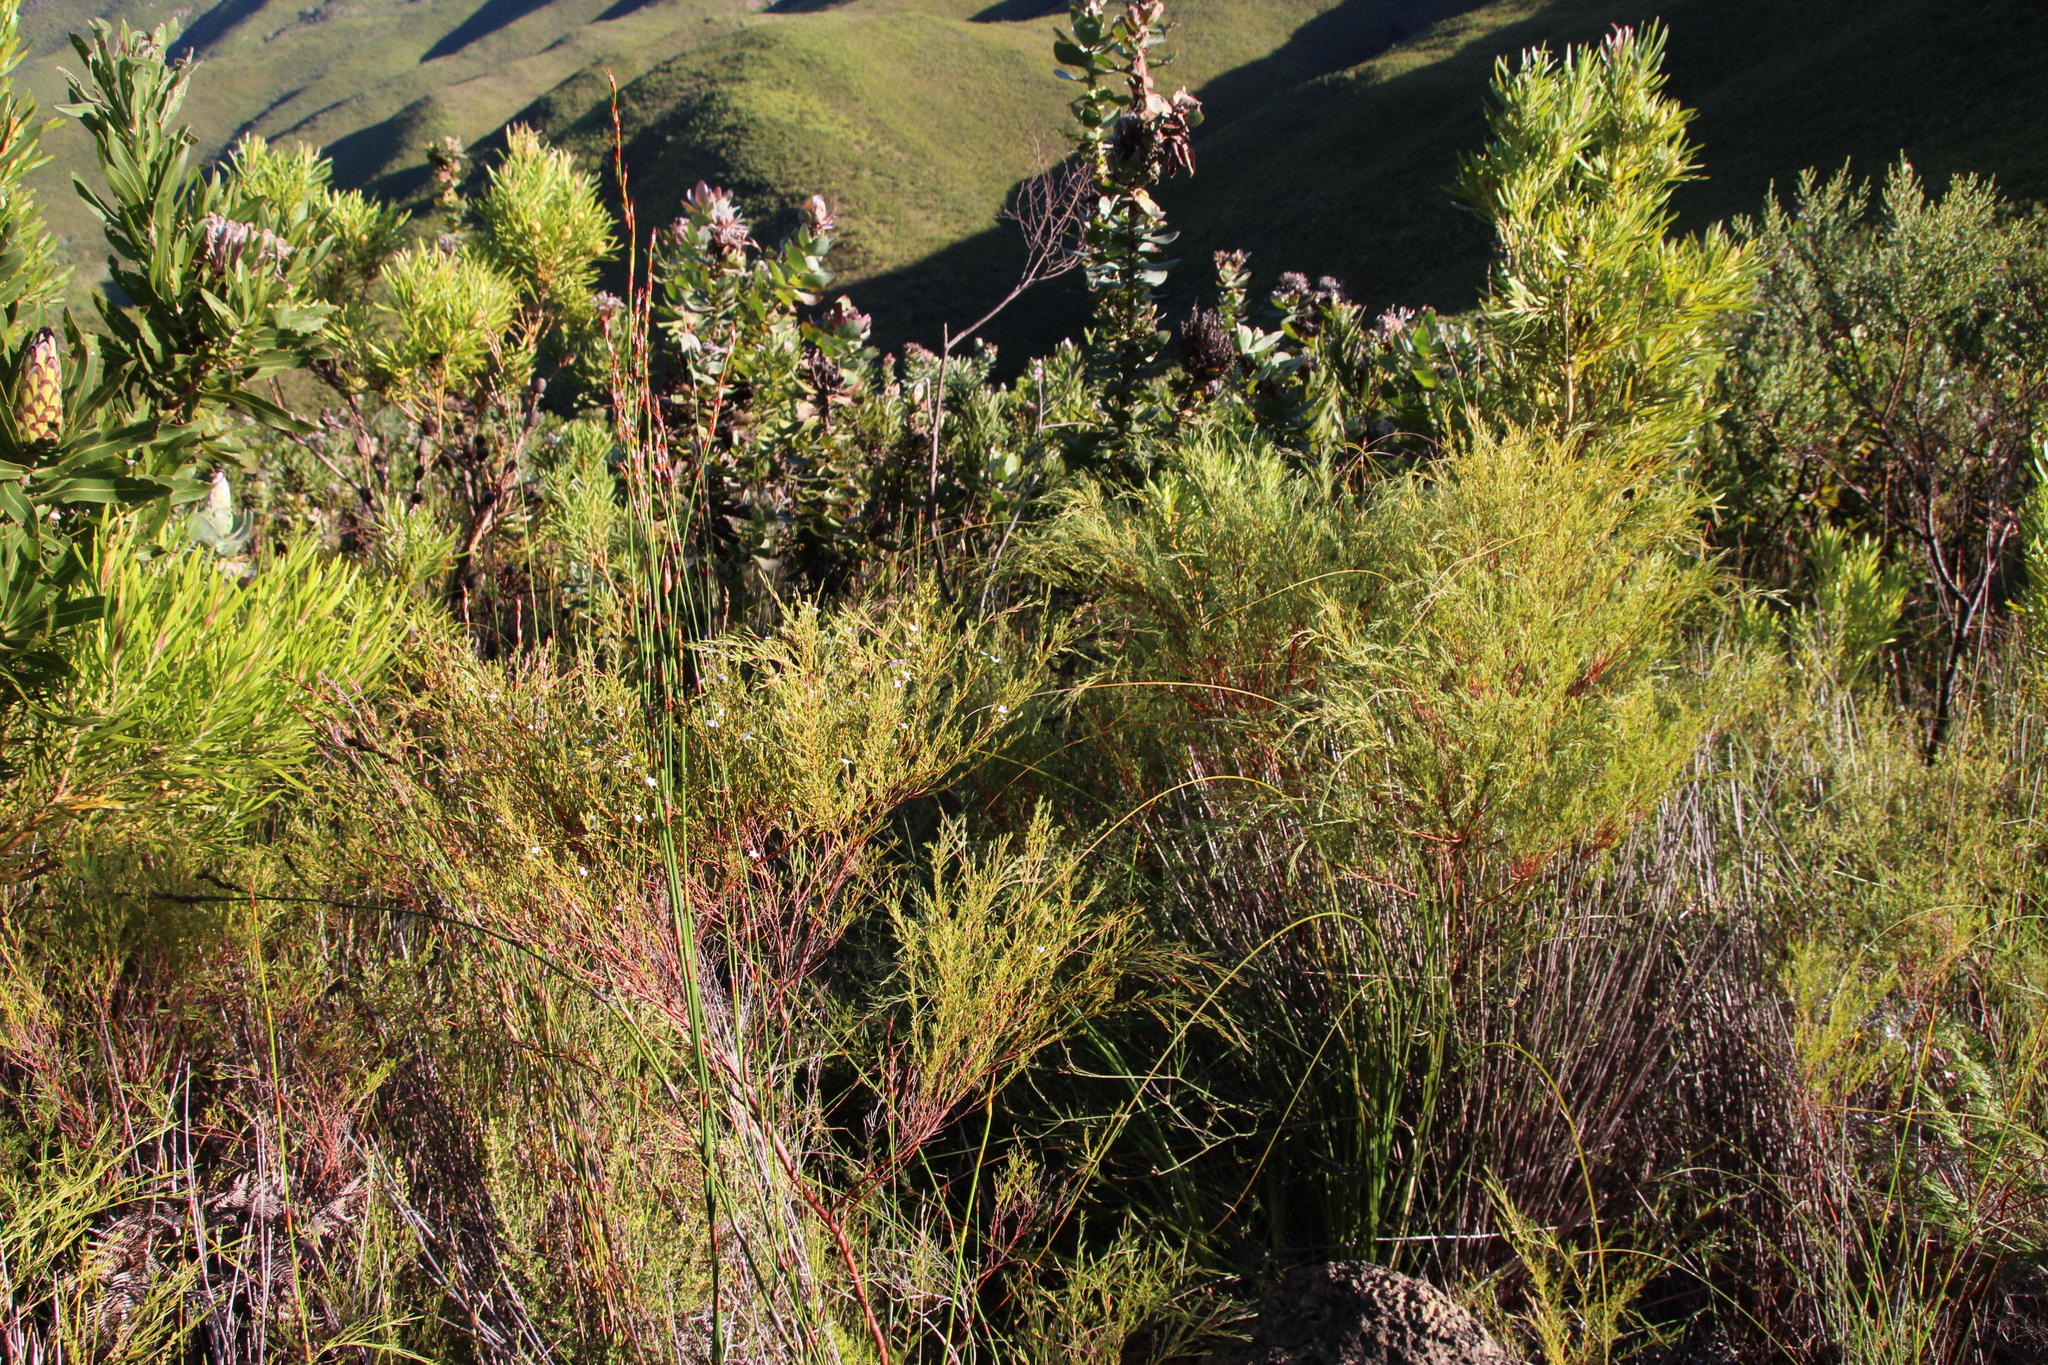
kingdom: Plantae
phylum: Tracheophyta
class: Magnoliopsida
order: Sapindales
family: Rutaceae
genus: Coleonema
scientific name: Coleonema virgatum
